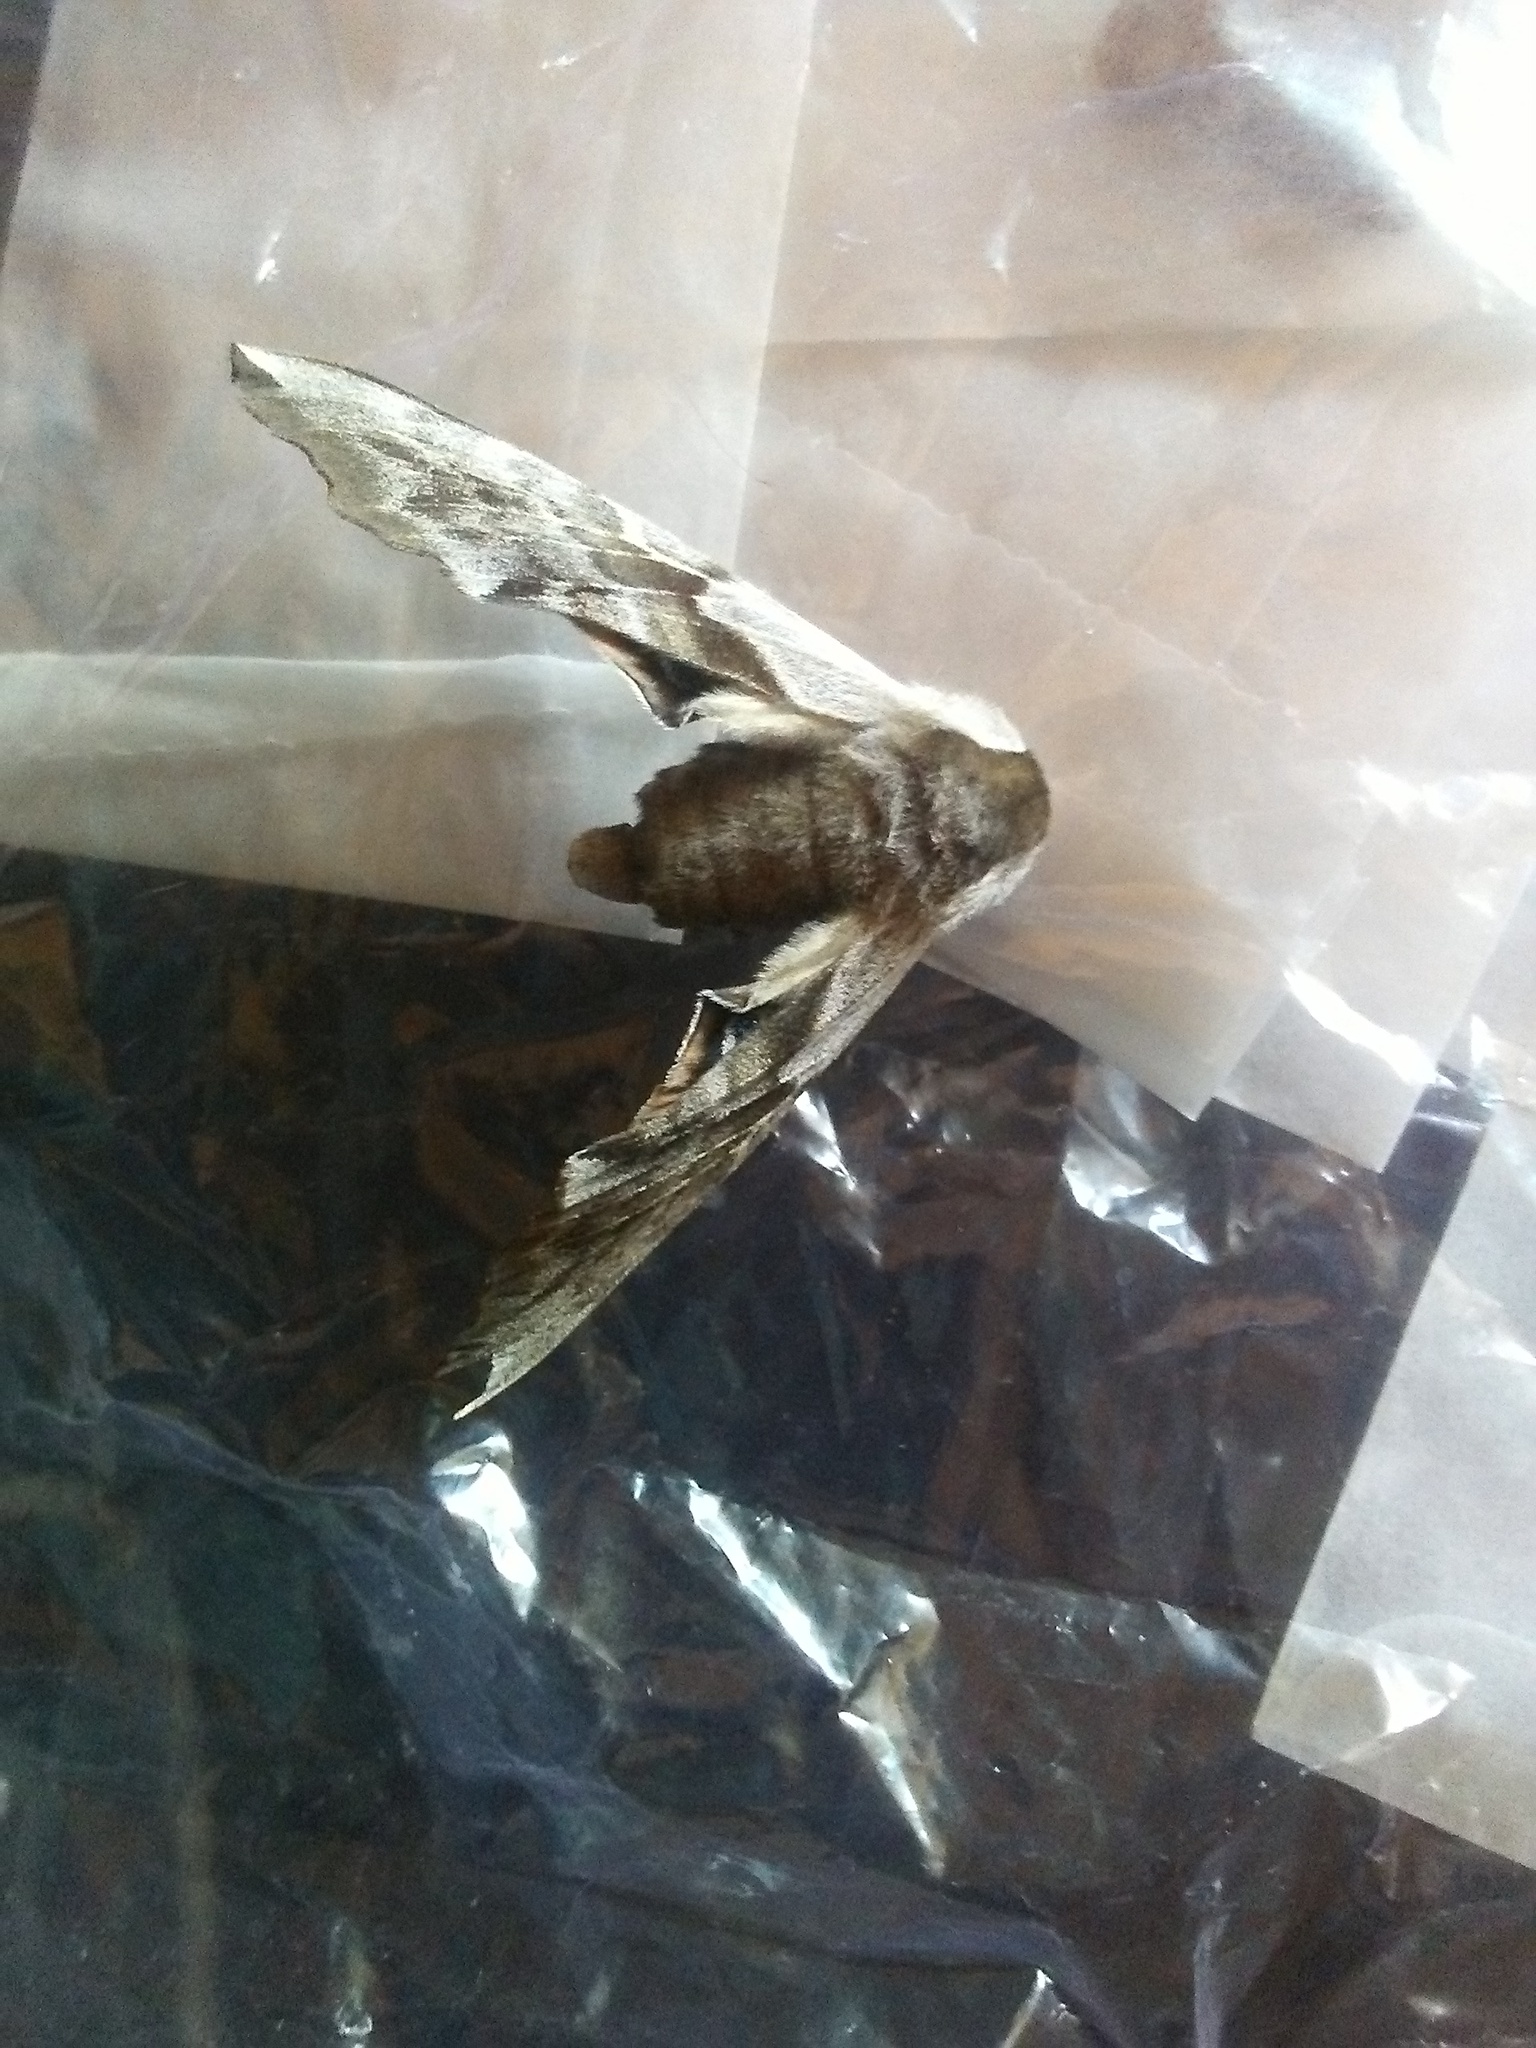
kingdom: Animalia
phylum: Arthropoda
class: Insecta
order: Lepidoptera
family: Sphingidae
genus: Smerinthus
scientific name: Smerinthus cerisyi
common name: Cerisy's sphinx moth
